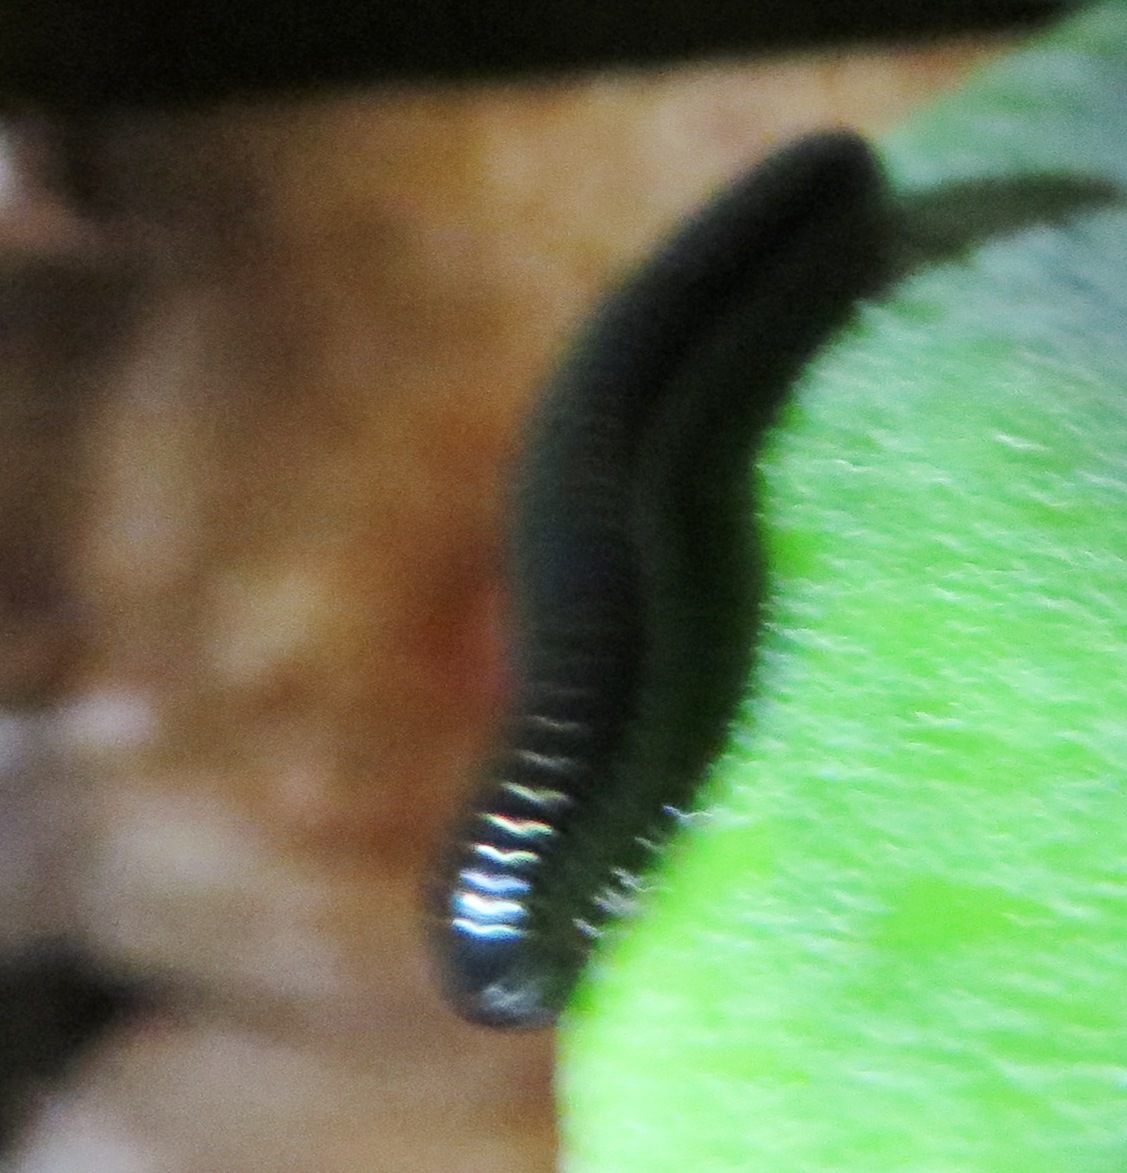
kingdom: Animalia
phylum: Arthropoda
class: Diplopoda
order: Julida
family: Julidae
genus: Ommatoiulus
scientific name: Ommatoiulus moreleti
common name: Portuguese millipede
